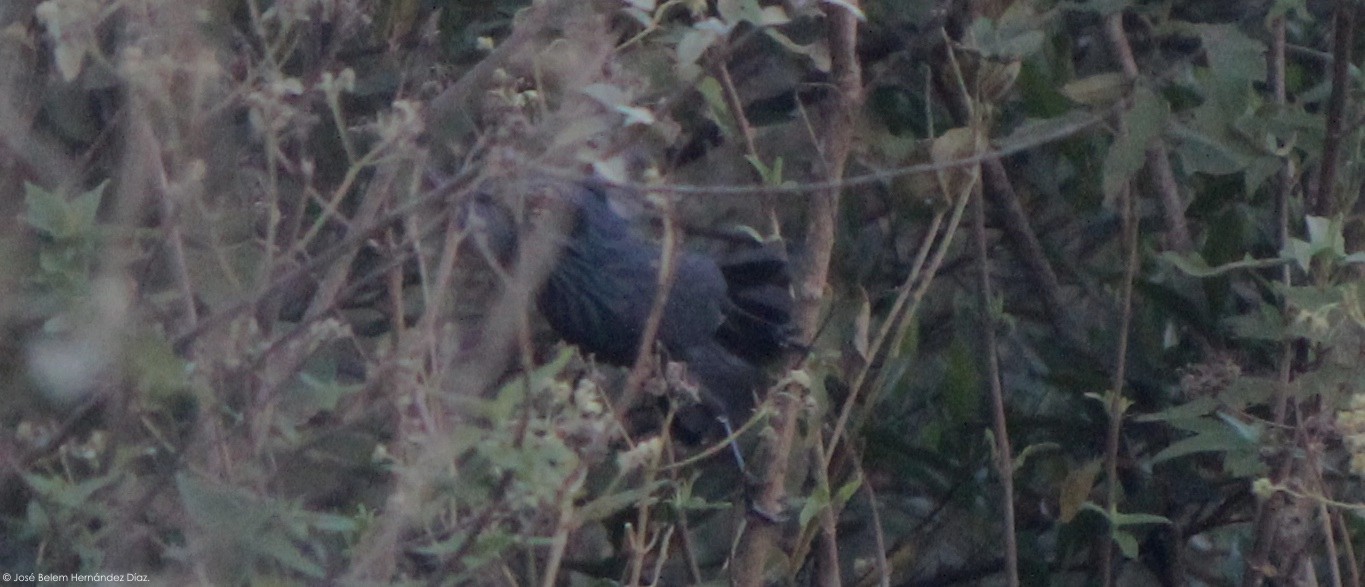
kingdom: Animalia
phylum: Chordata
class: Aves
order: Passeriformes
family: Mimidae
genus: Melanotis
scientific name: Melanotis caerulescens
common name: Blue mockingbird
